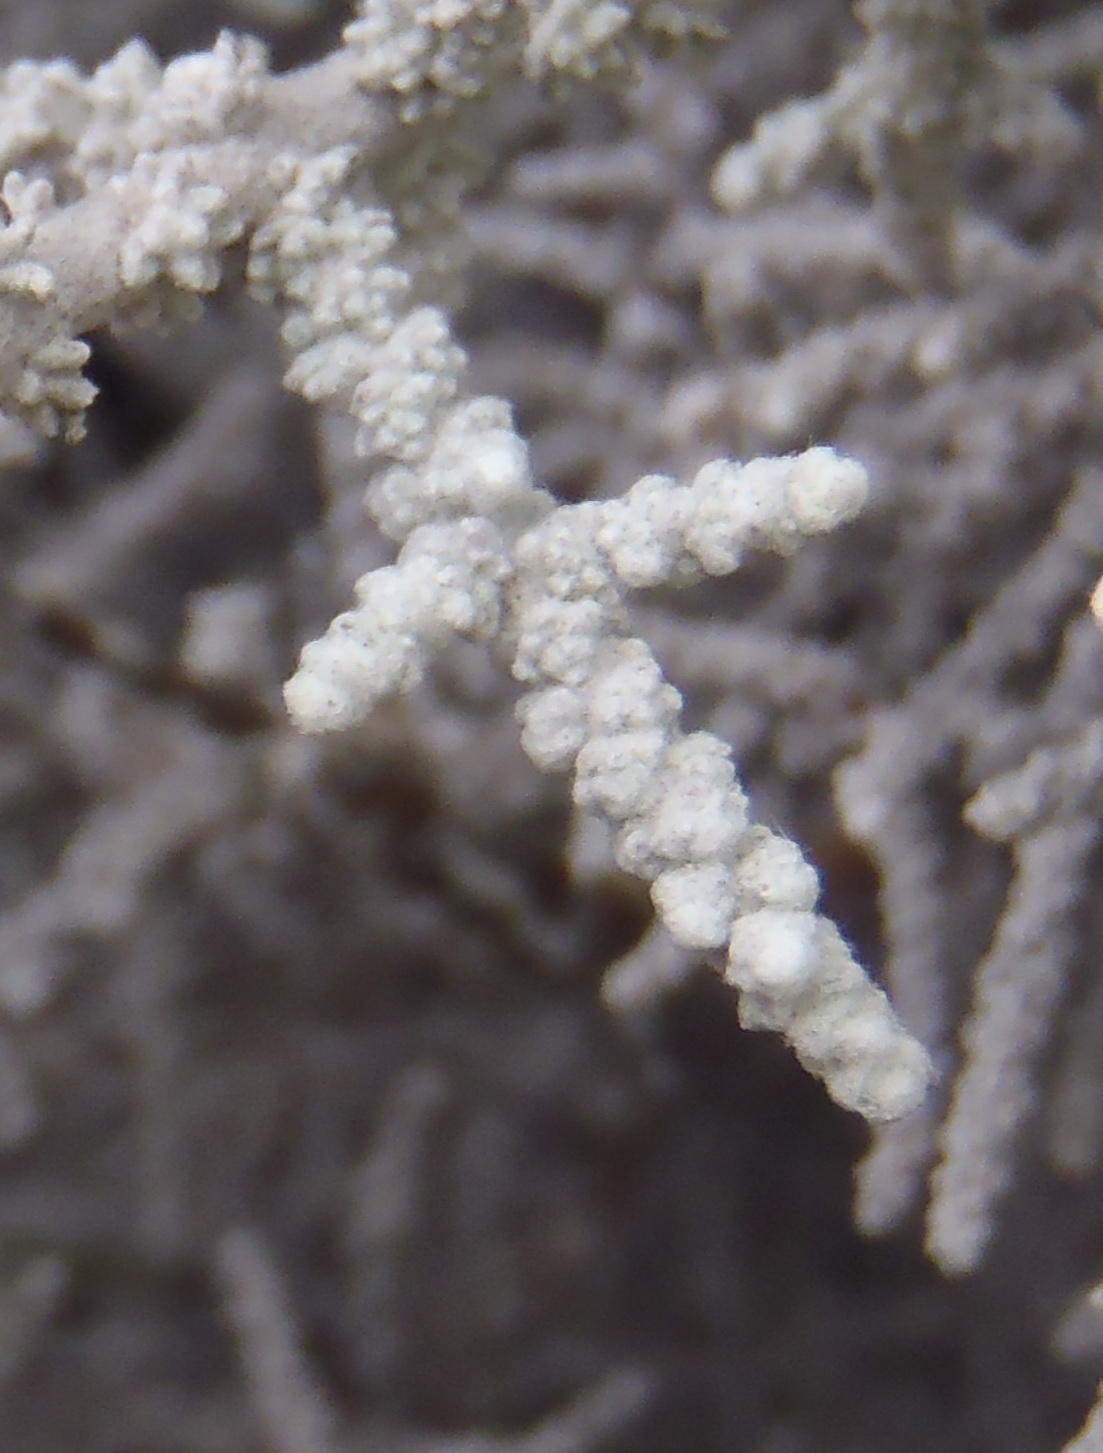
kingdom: Plantae
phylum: Tracheophyta
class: Magnoliopsida
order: Asterales
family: Asteraceae
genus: Seriphium
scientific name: Seriphium plumosum
